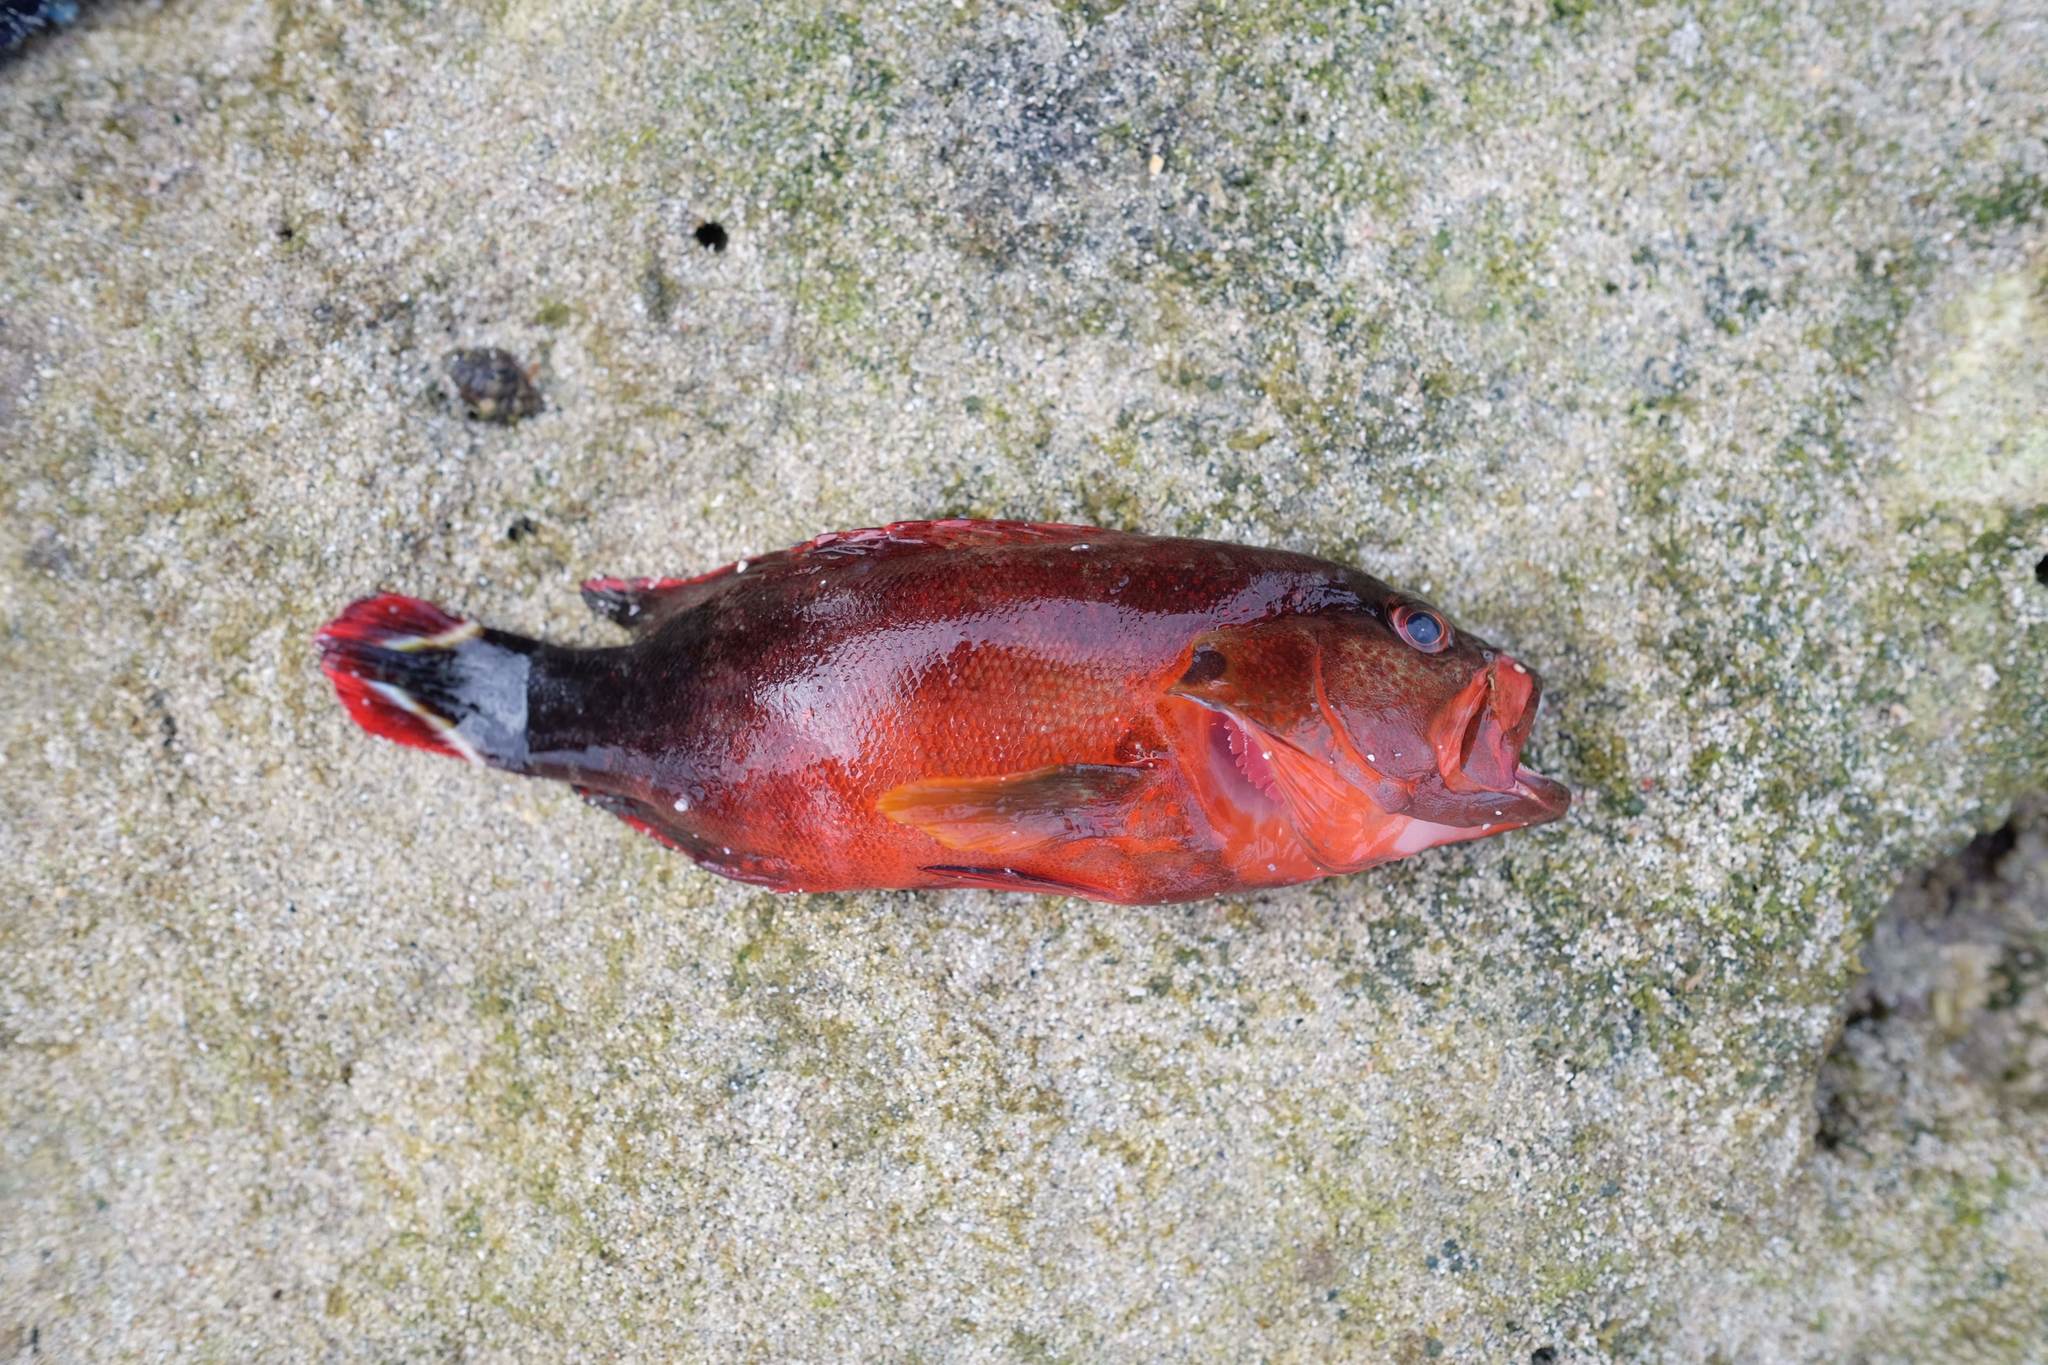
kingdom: Animalia
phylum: Chordata
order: Perciformes
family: Serranidae
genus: Cephalopholis
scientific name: Cephalopholis urodeta
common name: Darkfin hind
